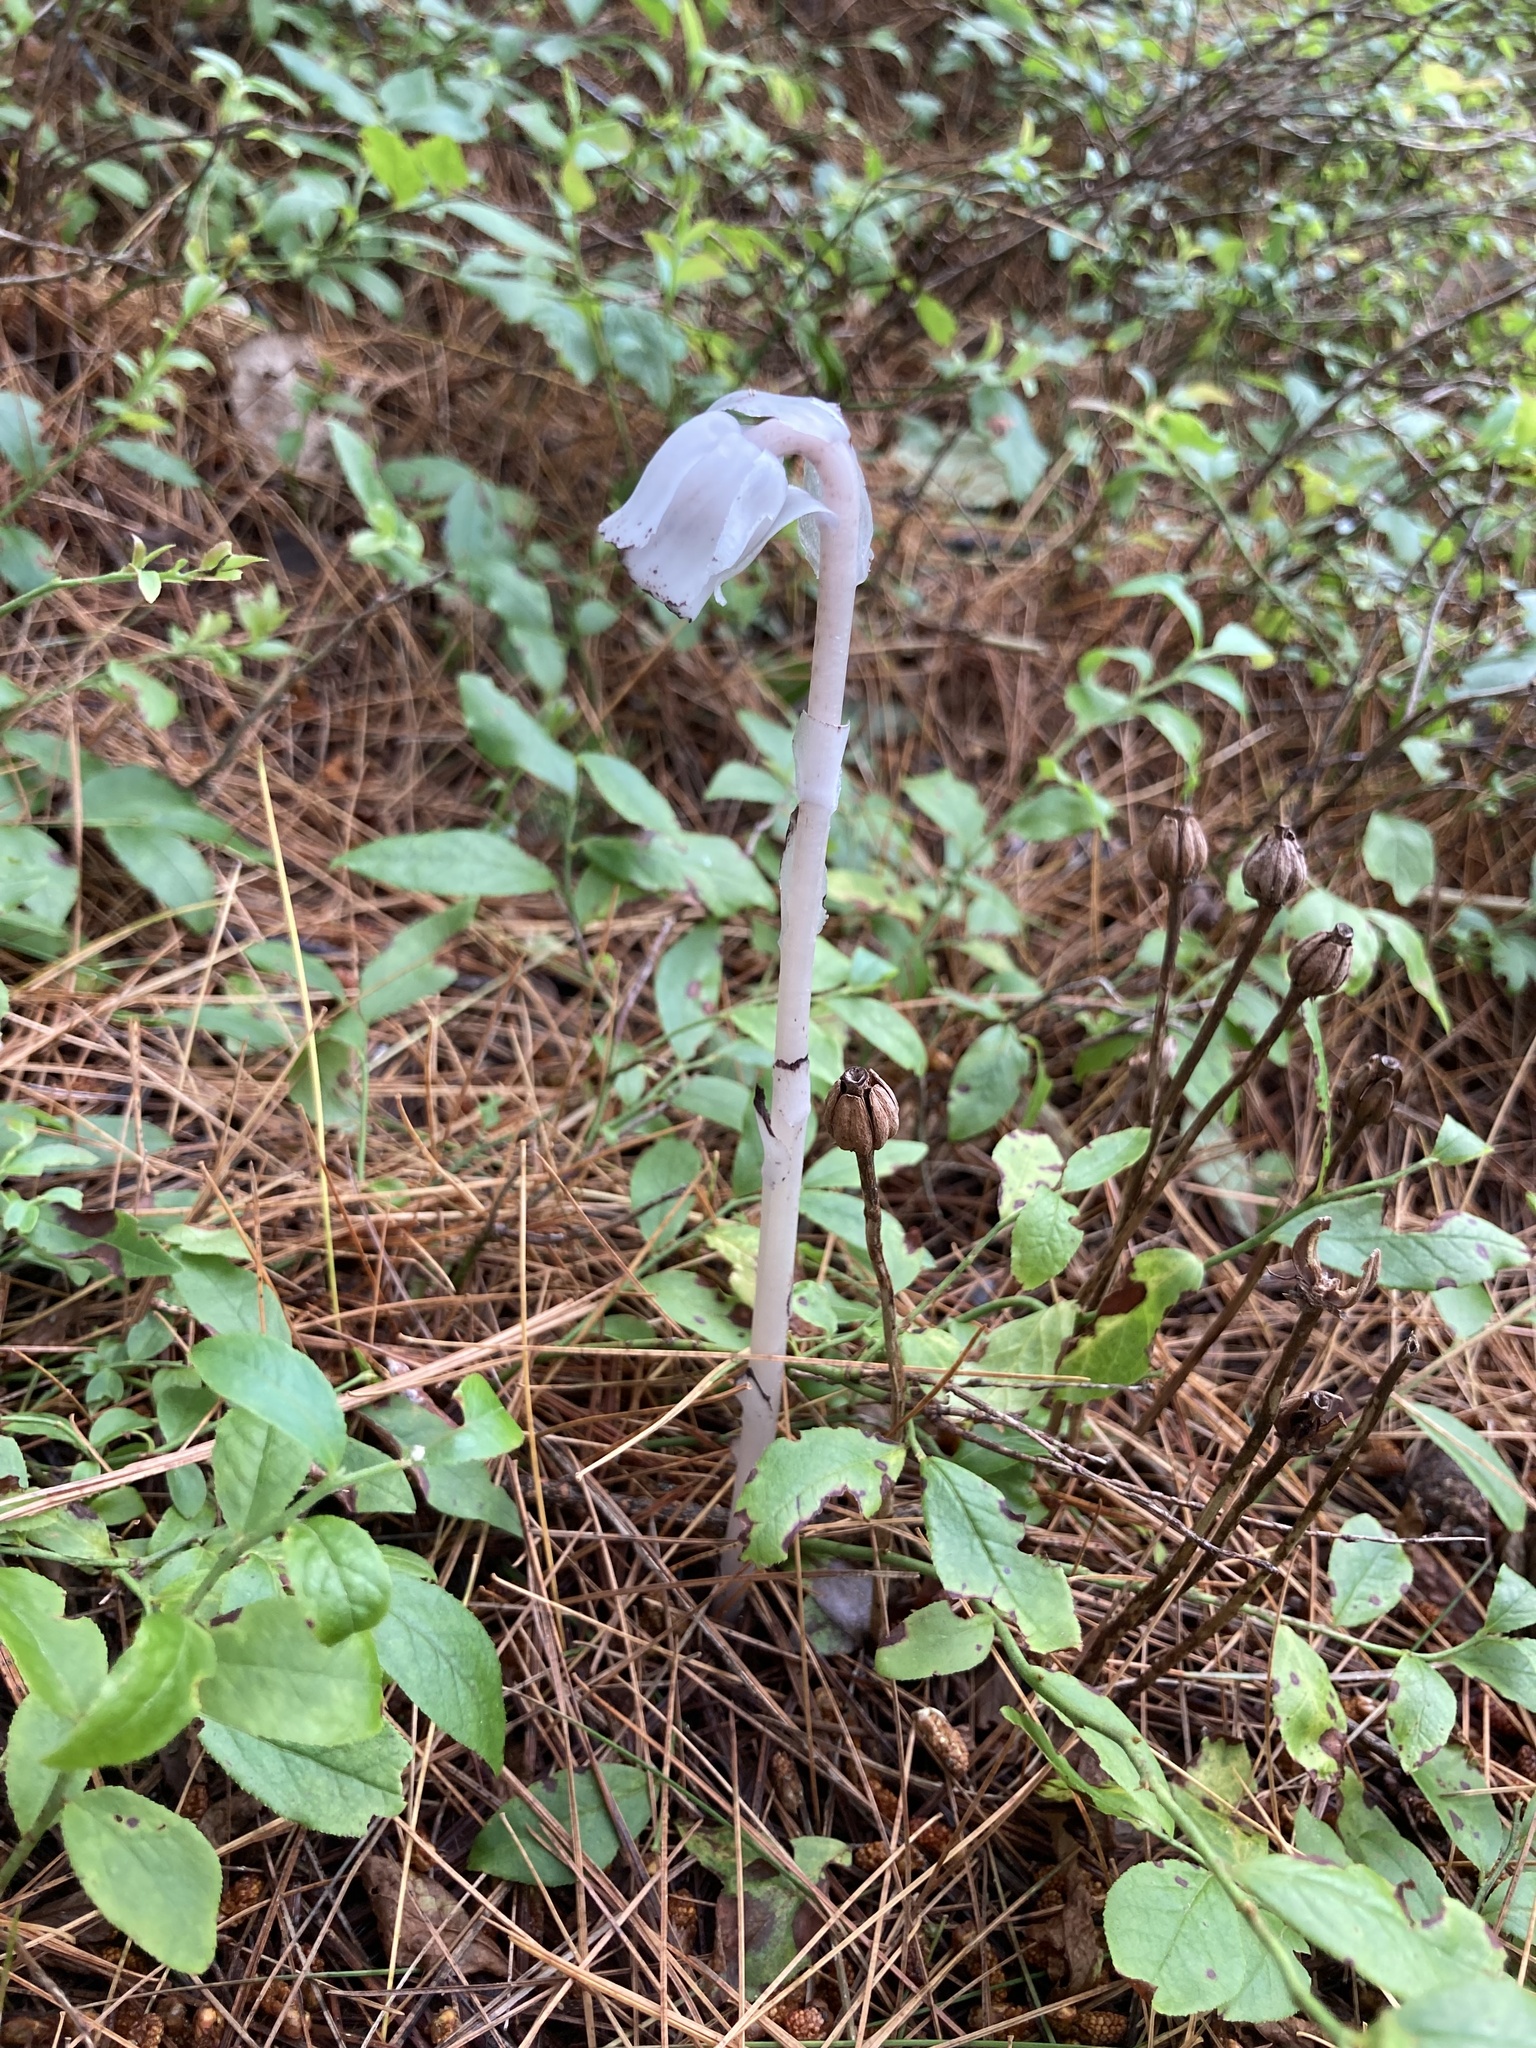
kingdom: Plantae
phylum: Tracheophyta
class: Magnoliopsida
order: Ericales
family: Ericaceae
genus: Monotropa
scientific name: Monotropa uniflora
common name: Convulsion root
